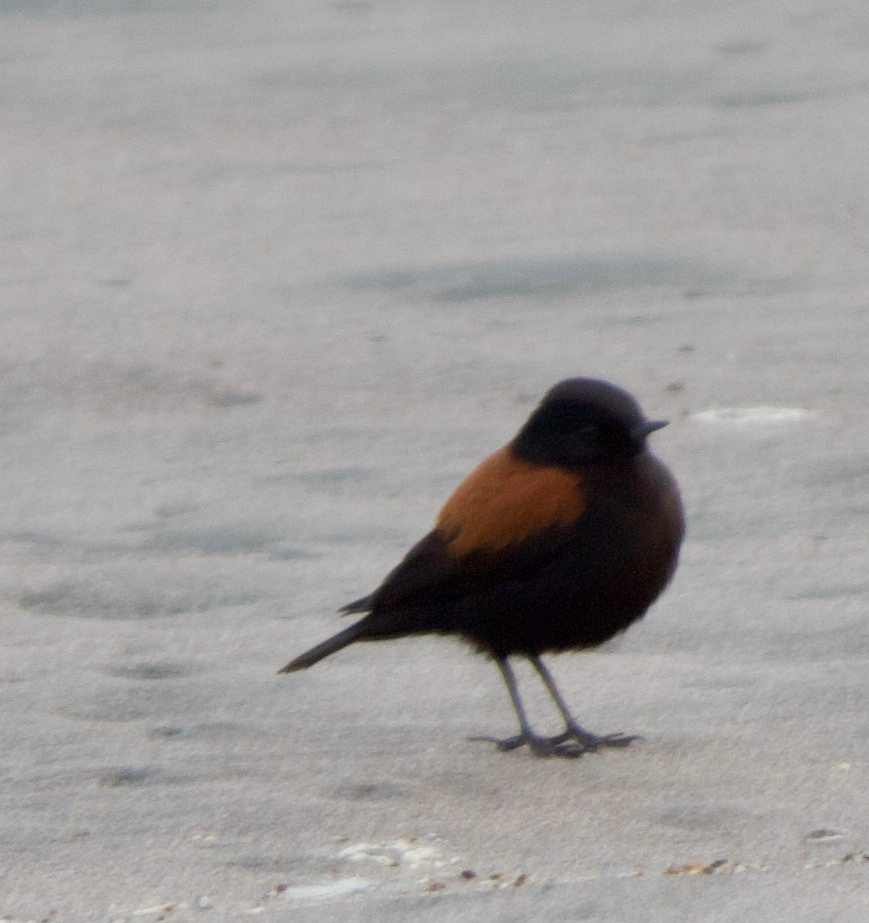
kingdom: Animalia
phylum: Chordata
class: Aves
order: Passeriformes
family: Tyrannidae
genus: Lessonia
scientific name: Lessonia rufa
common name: Austral negrito
